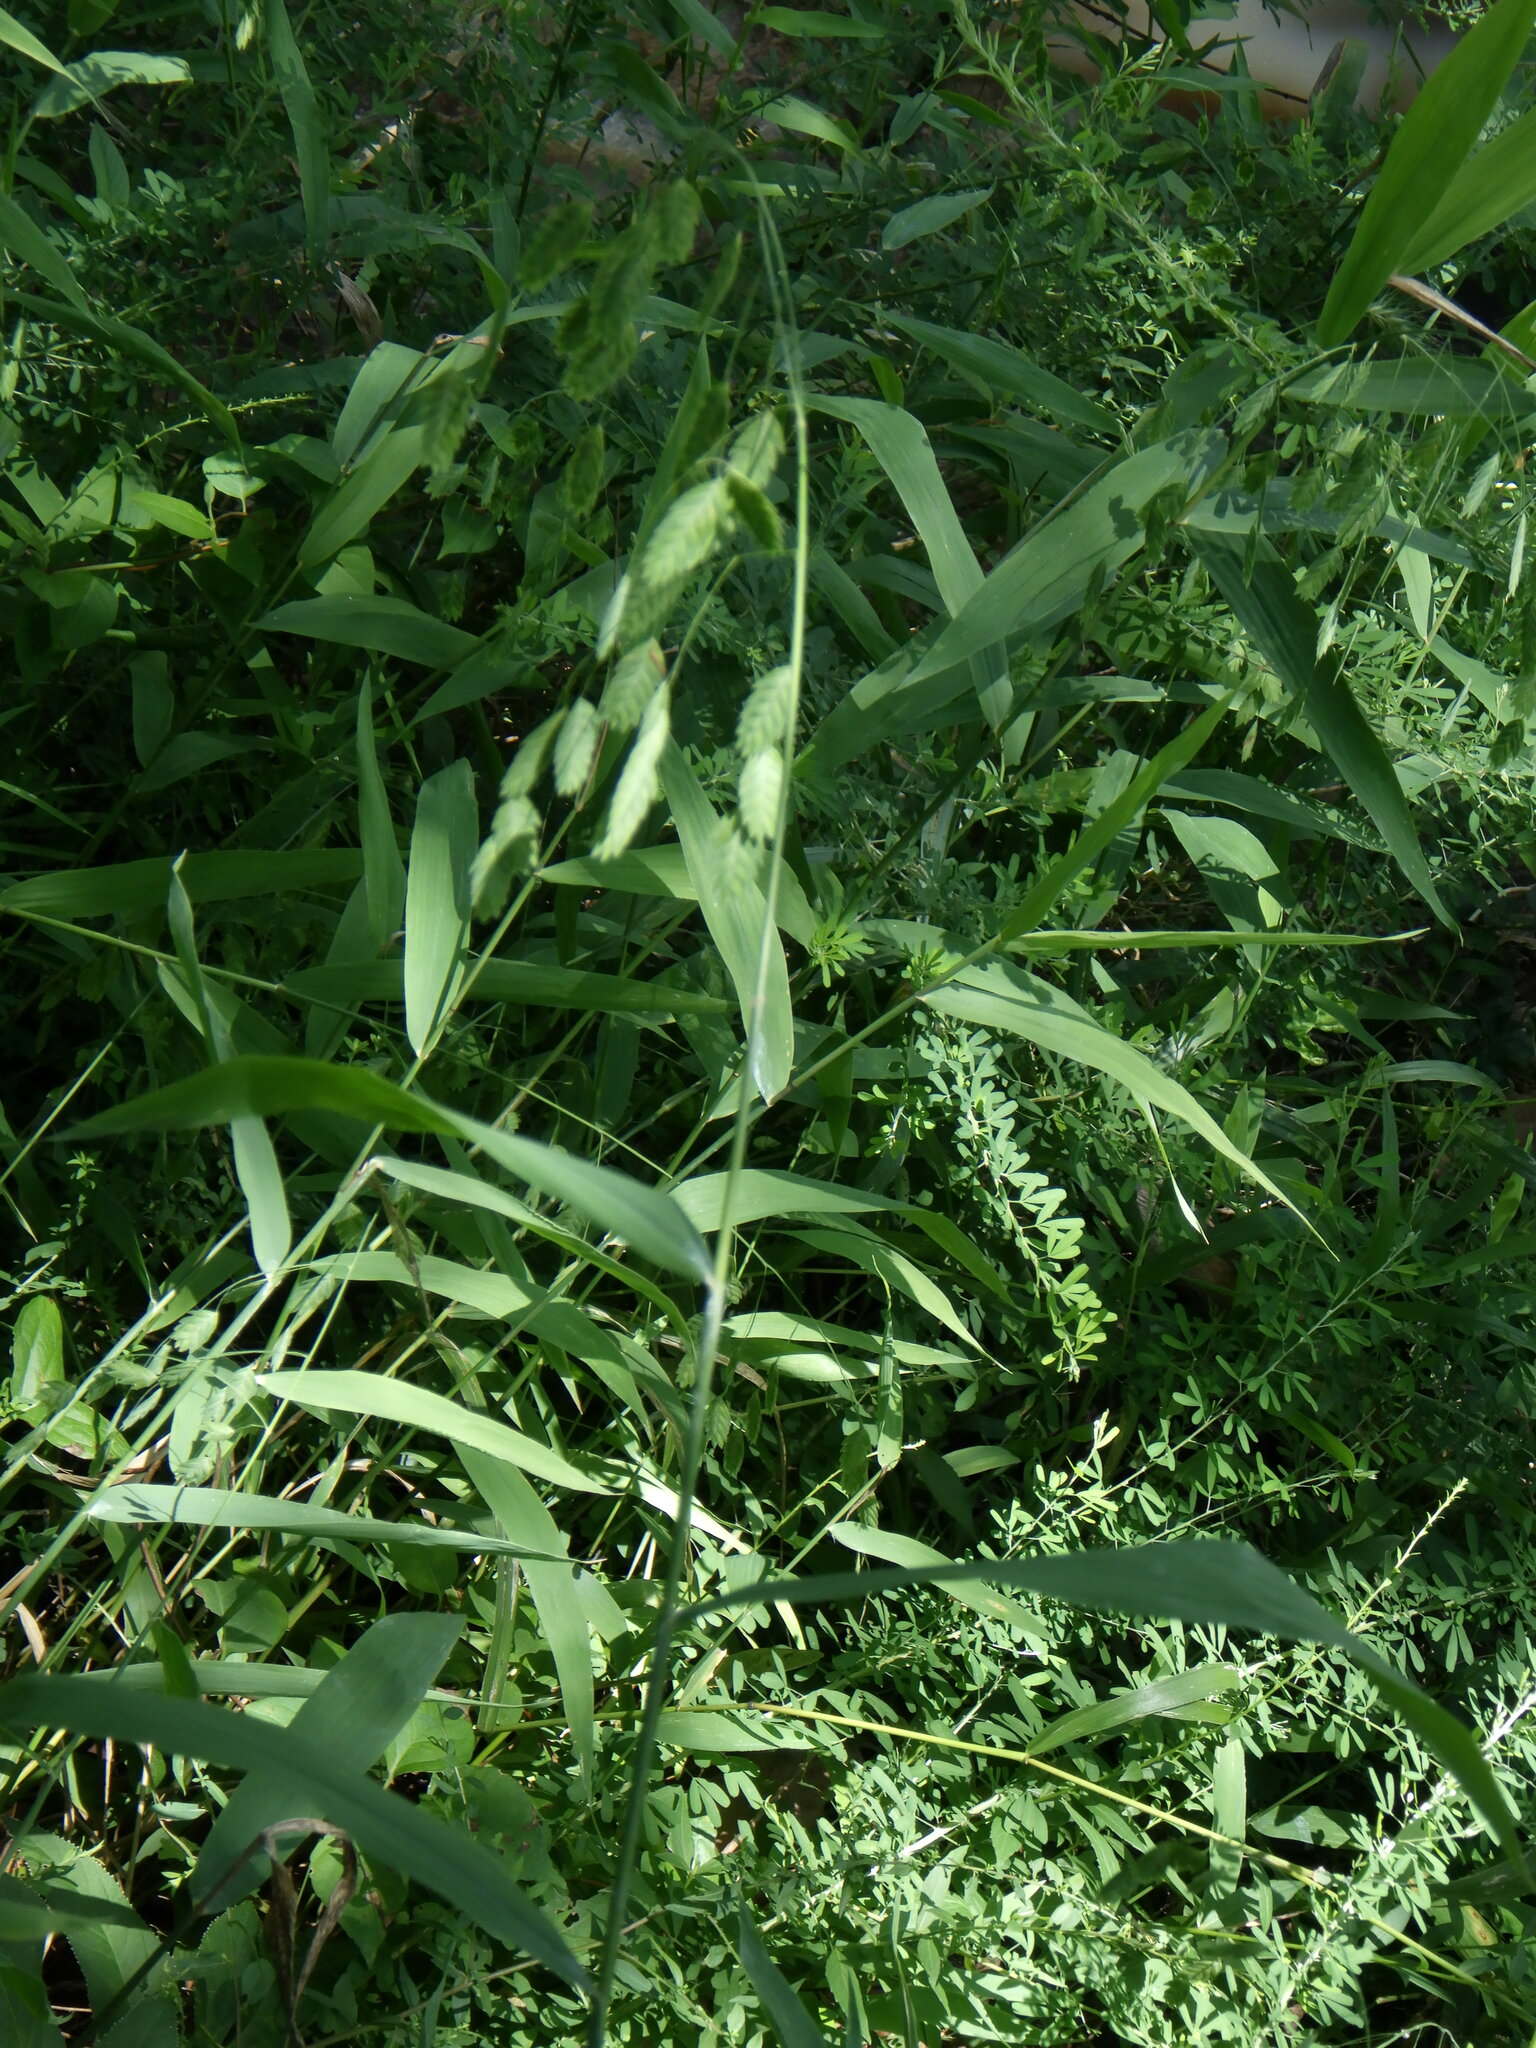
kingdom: Plantae
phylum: Tracheophyta
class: Liliopsida
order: Poales
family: Poaceae
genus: Chasmanthium
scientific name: Chasmanthium latifolium
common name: Broad-leaved chasmanthium
